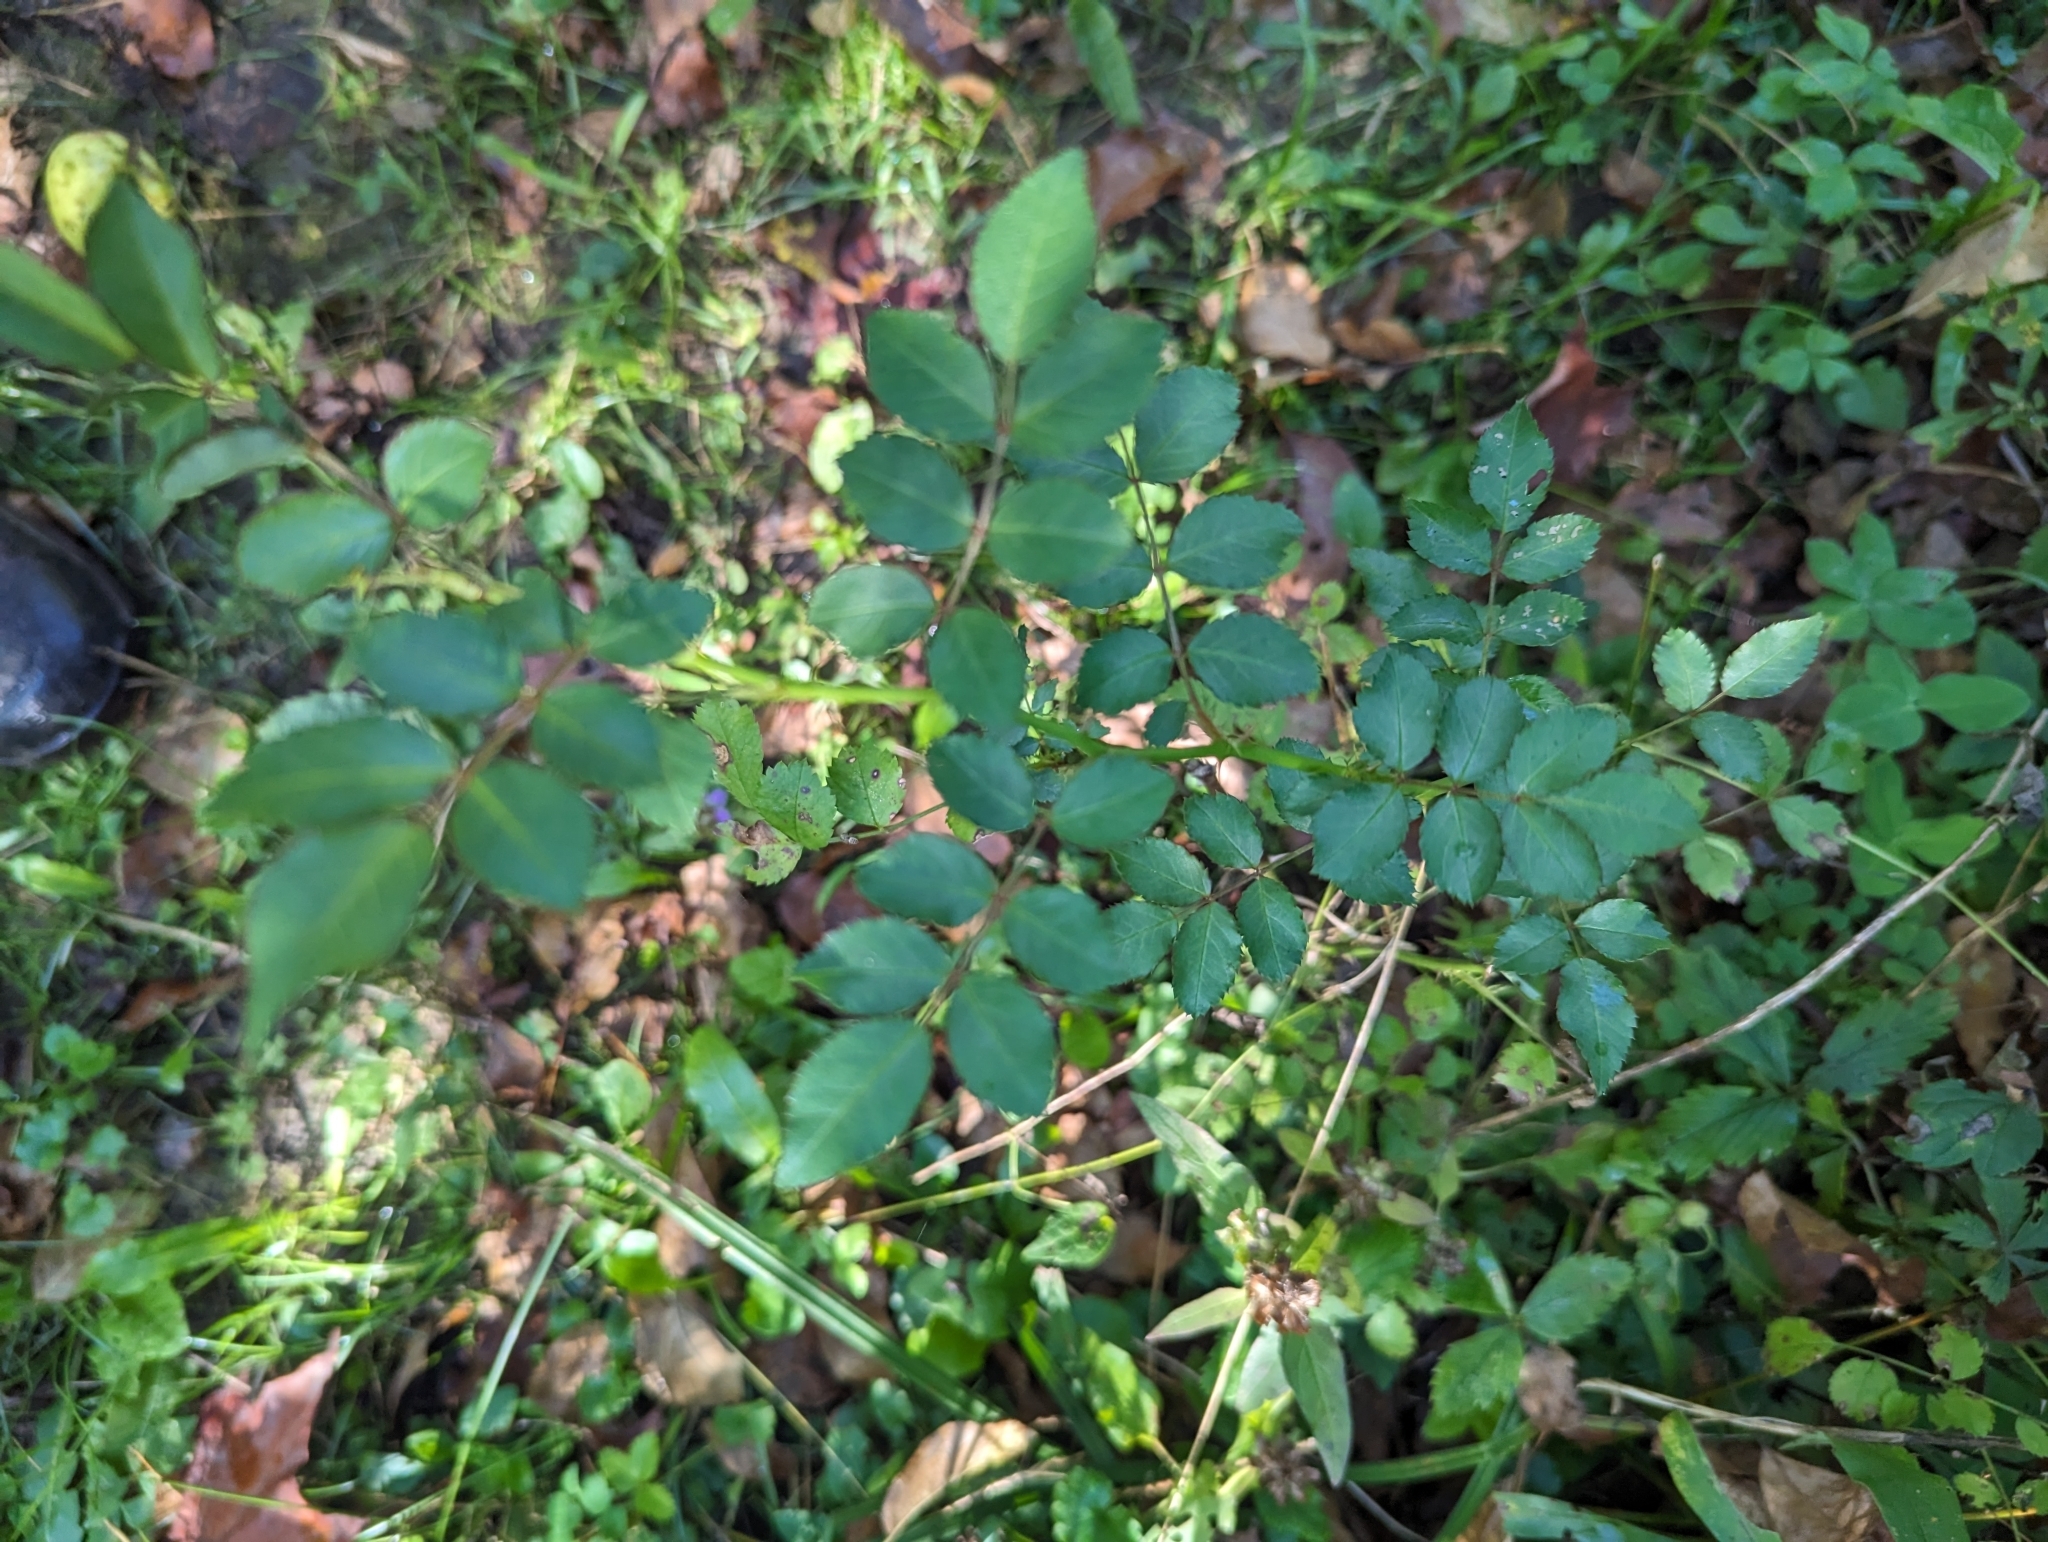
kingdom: Plantae
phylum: Tracheophyta
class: Magnoliopsida
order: Rosales
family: Rosaceae
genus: Rosa
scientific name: Rosa multiflora
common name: Multiflora rose
